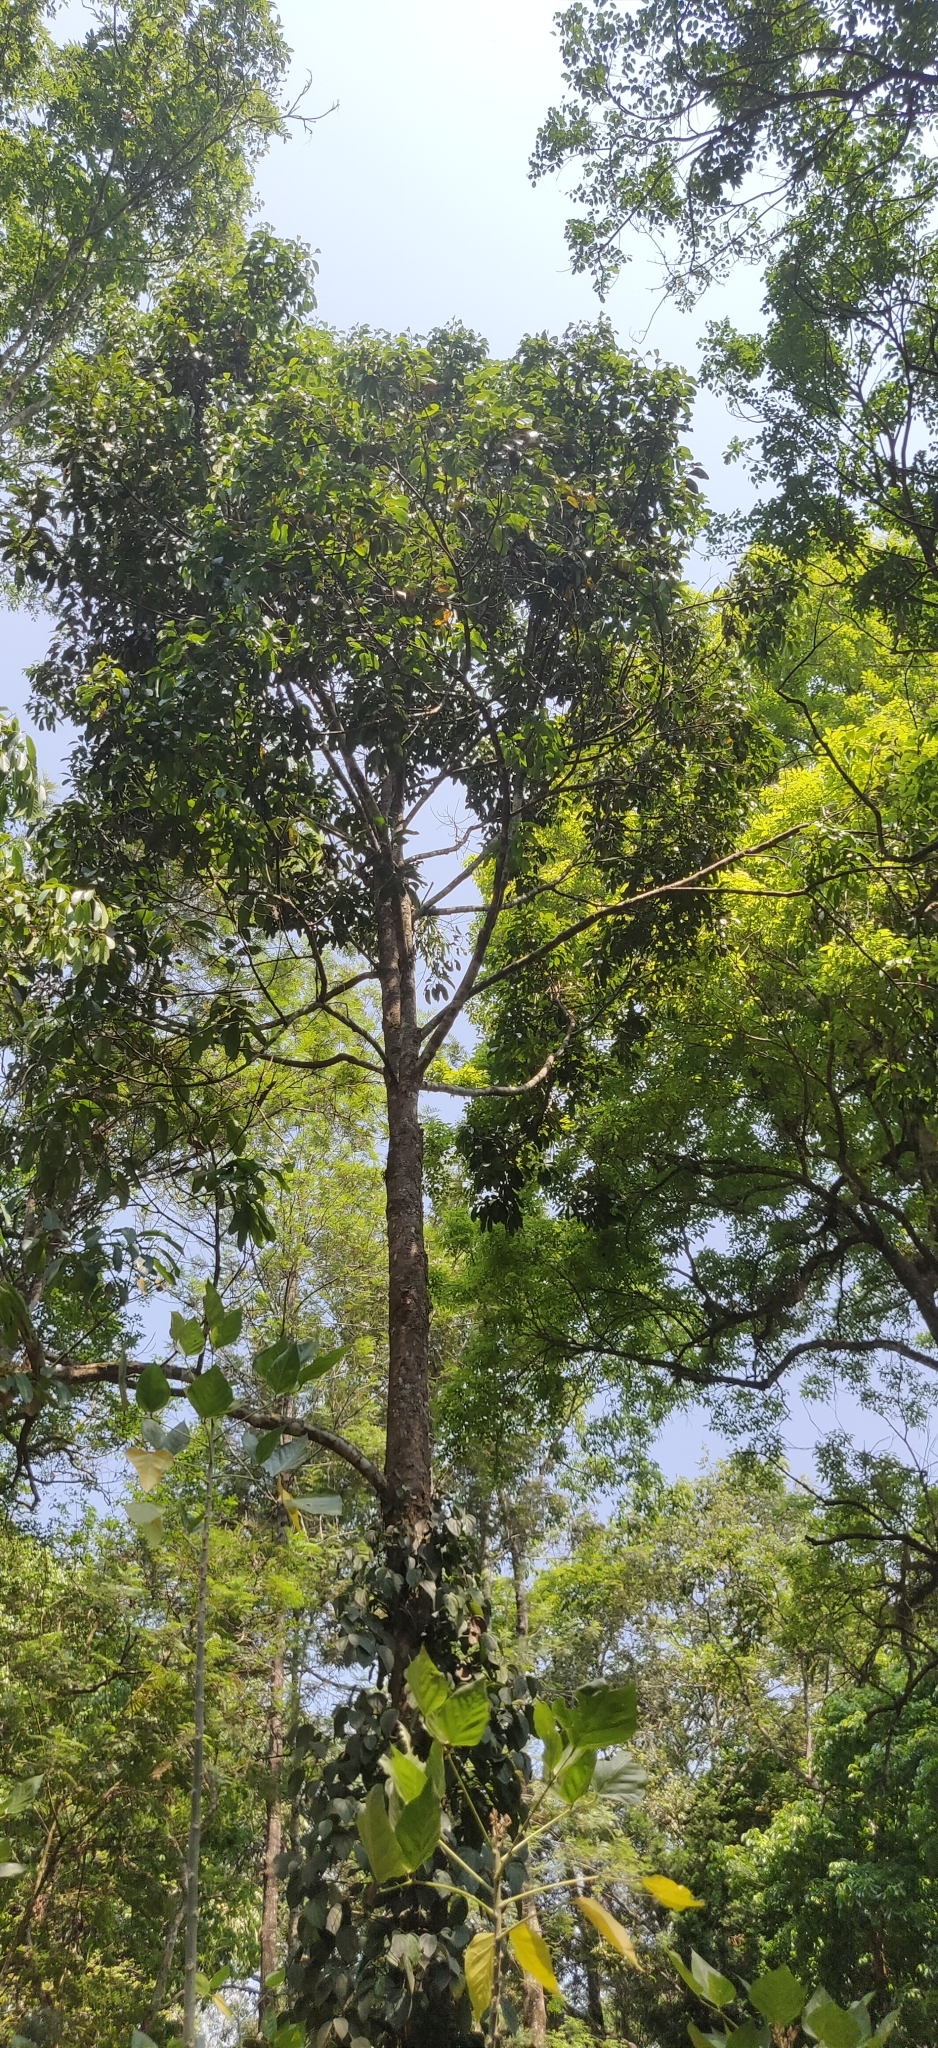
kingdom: Plantae
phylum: Tracheophyta
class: Magnoliopsida
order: Laurales
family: Lauraceae
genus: Litsea
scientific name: Litsea nigrescens
